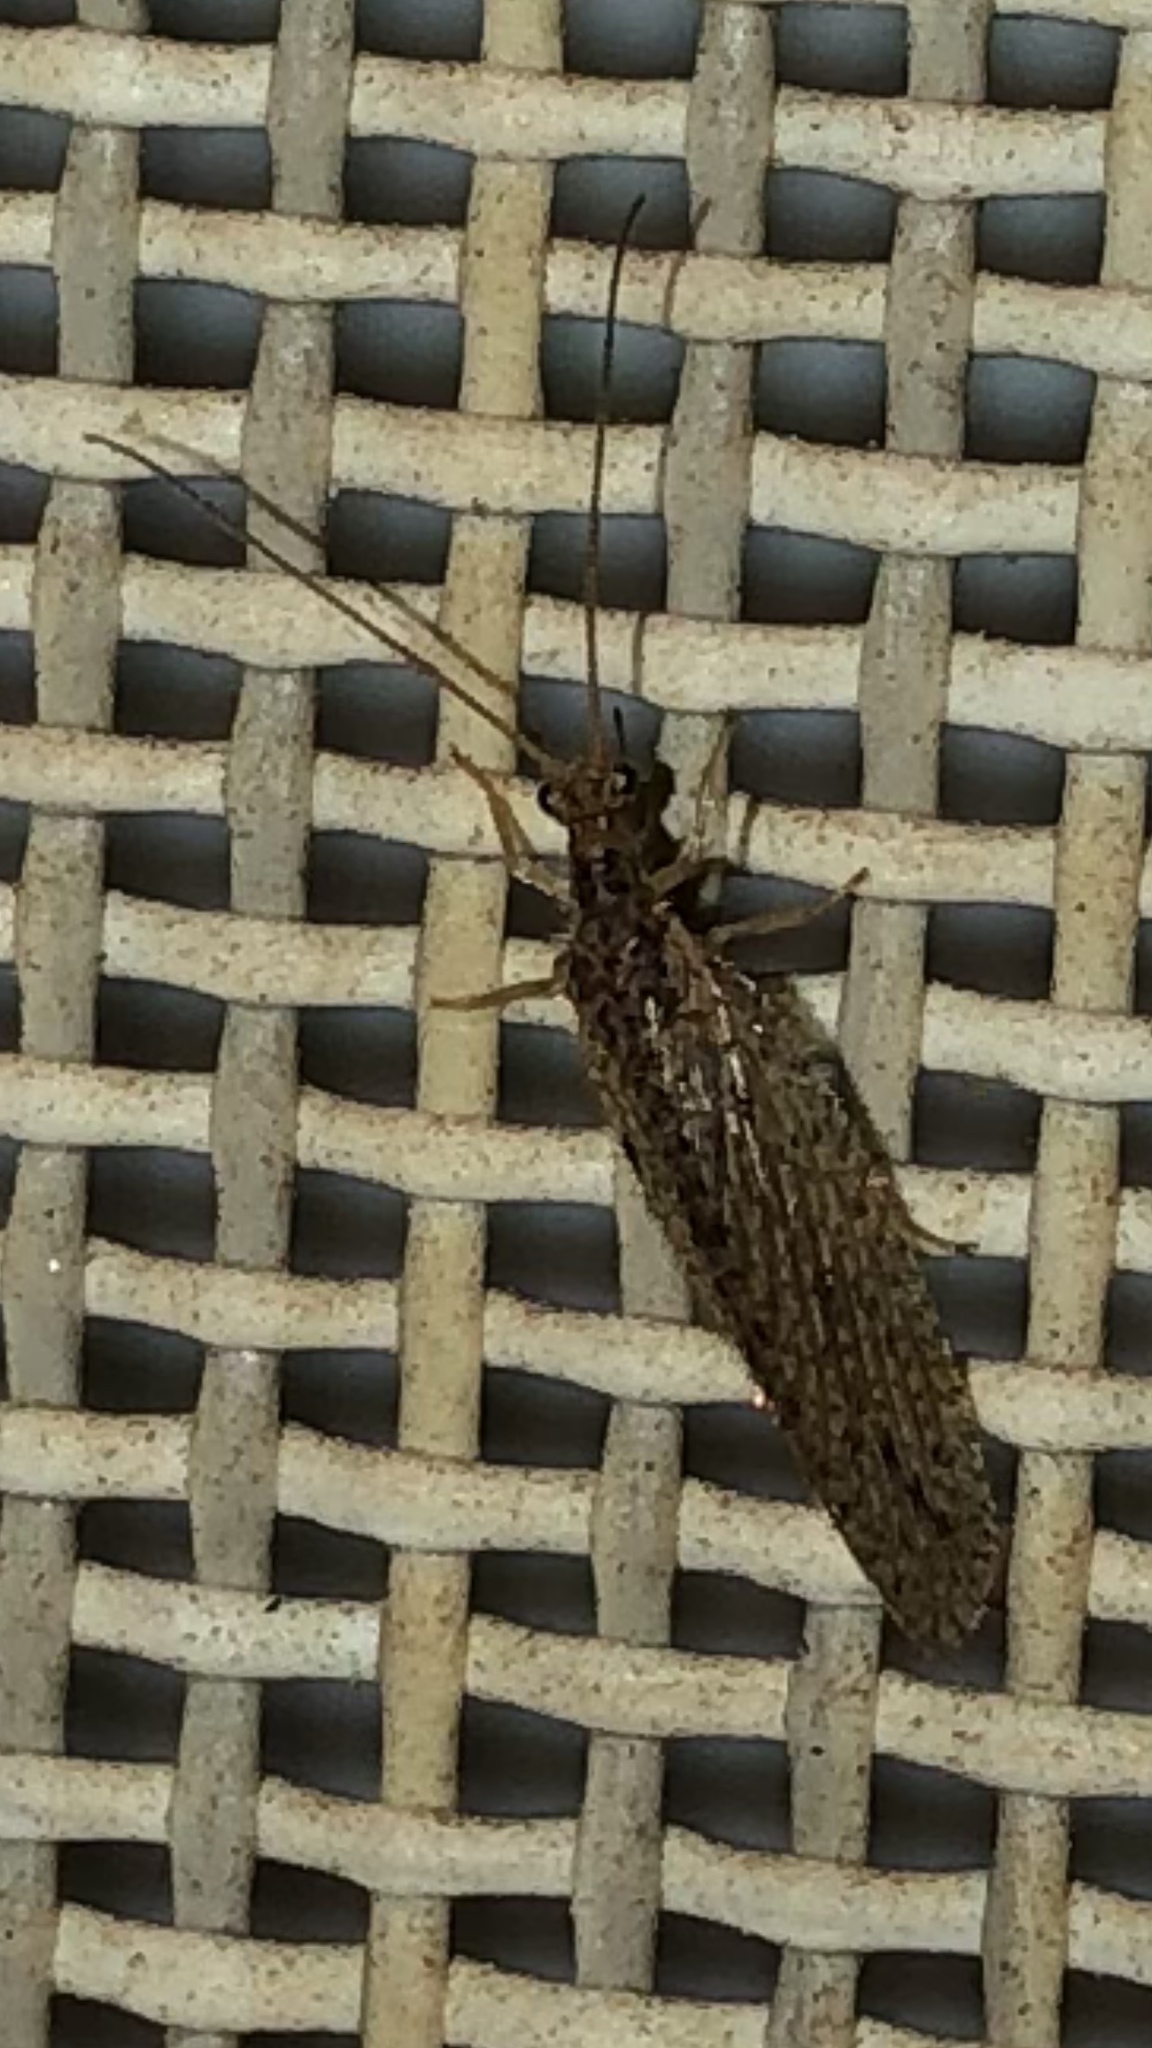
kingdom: Animalia
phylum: Arthropoda
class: Insecta
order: Neuroptera
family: Hemerobiidae
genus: Micromus
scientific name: Micromus subanticus
